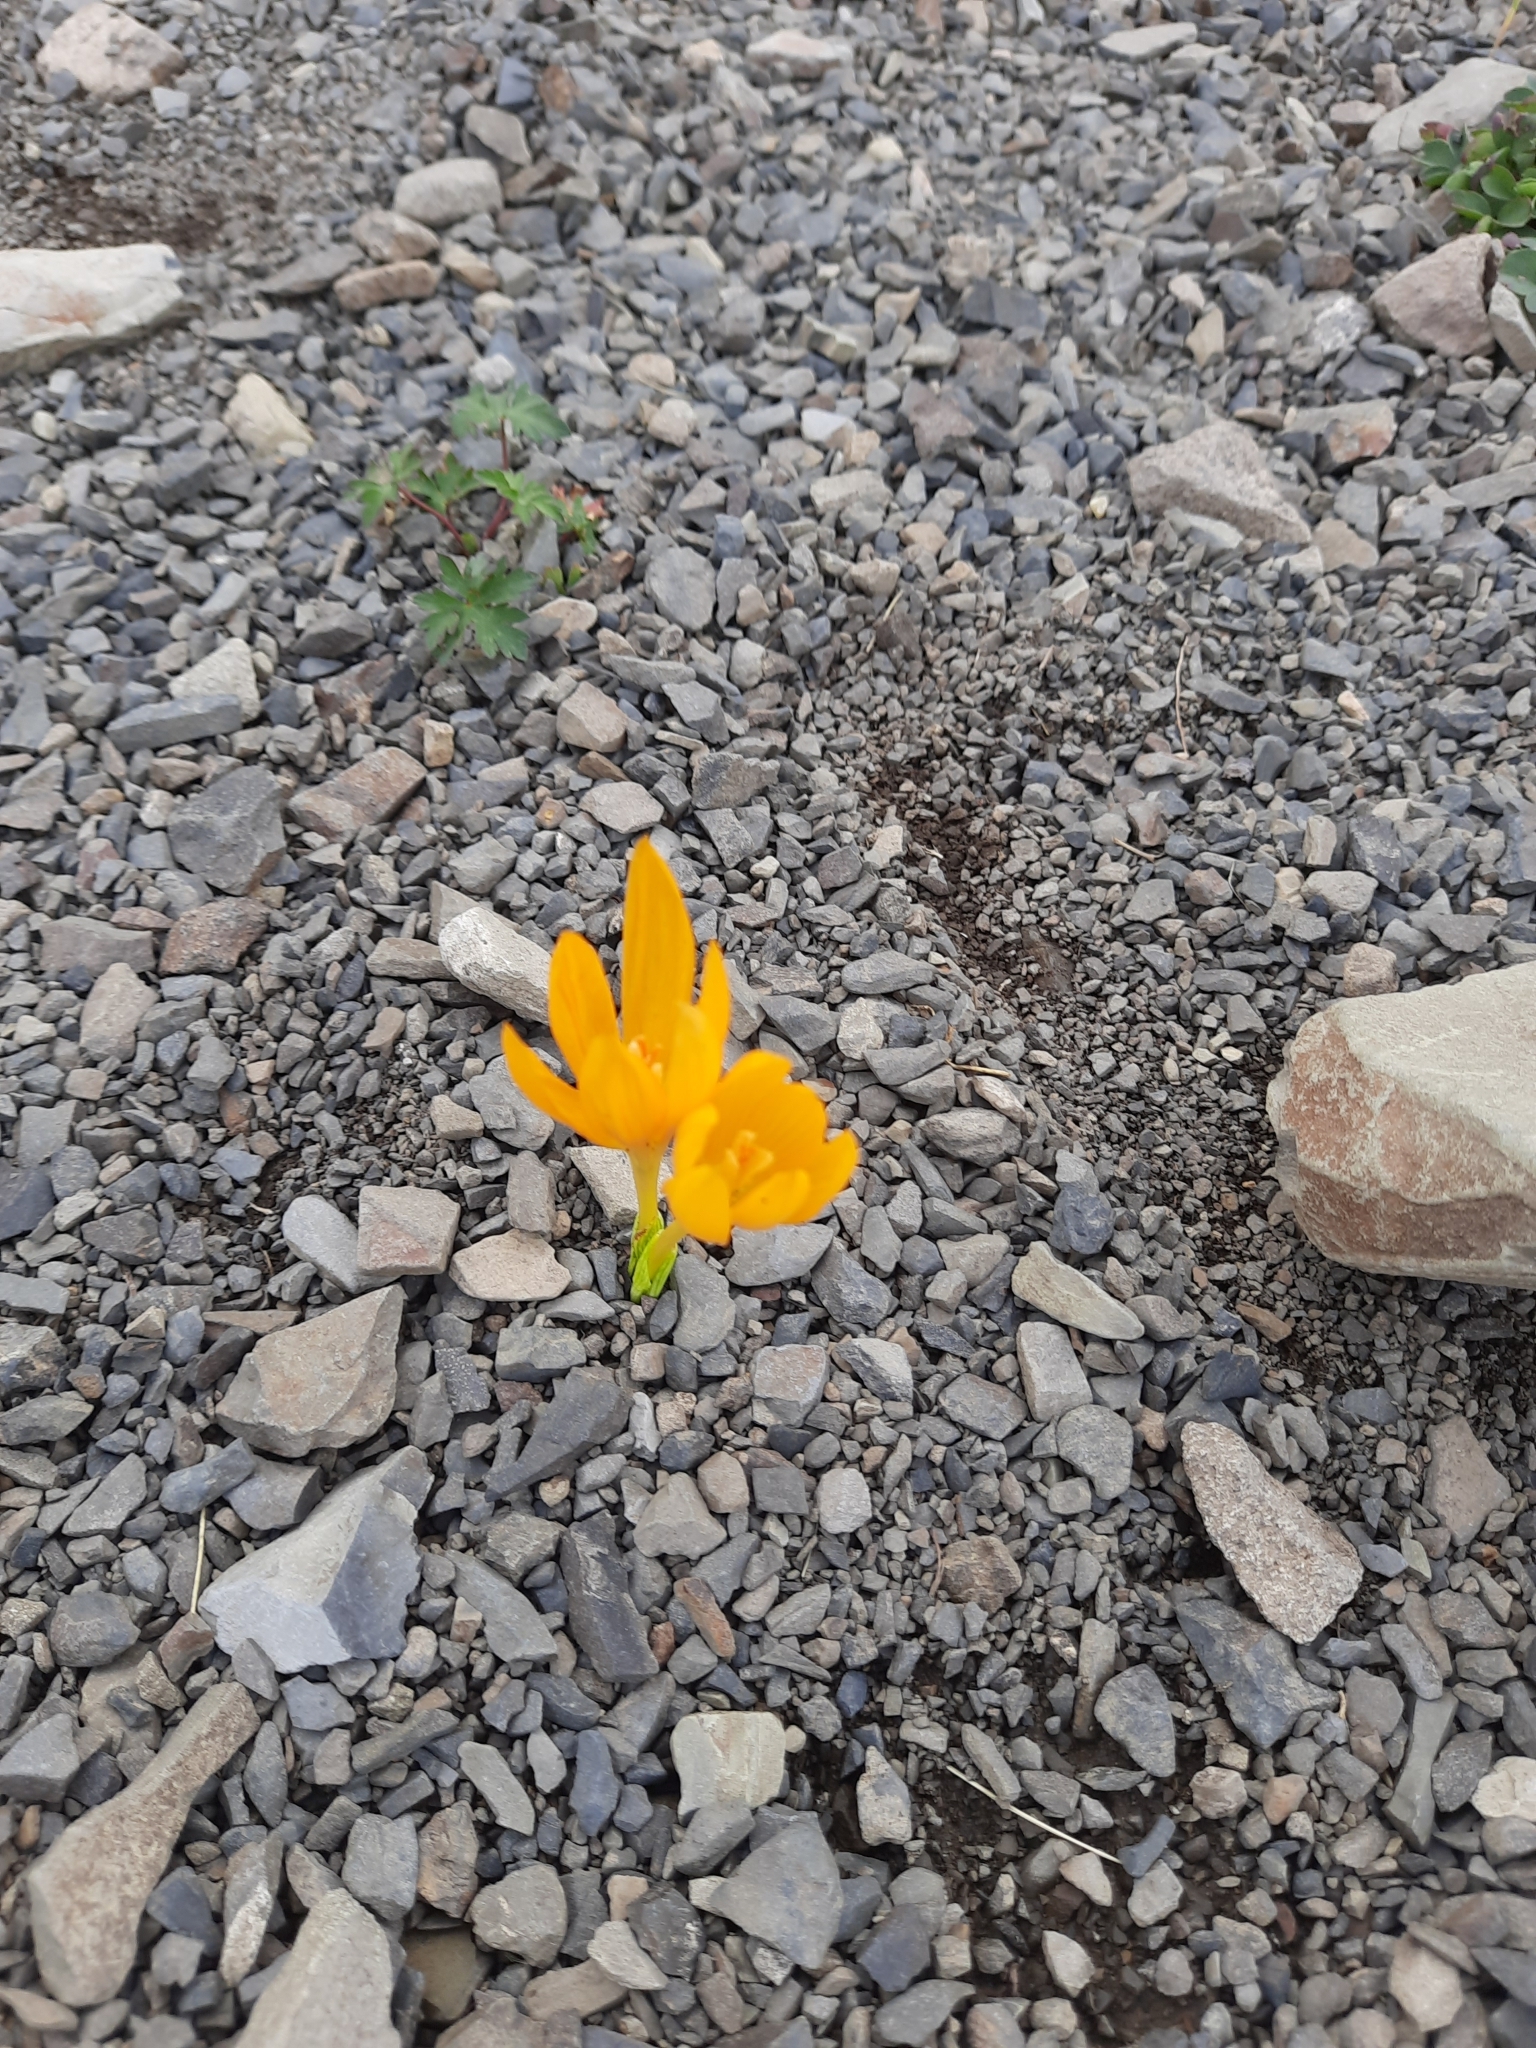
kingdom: Plantae
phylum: Tracheophyta
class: Liliopsida
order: Asparagales
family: Iridaceae
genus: Crocus
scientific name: Crocus scharojanii
